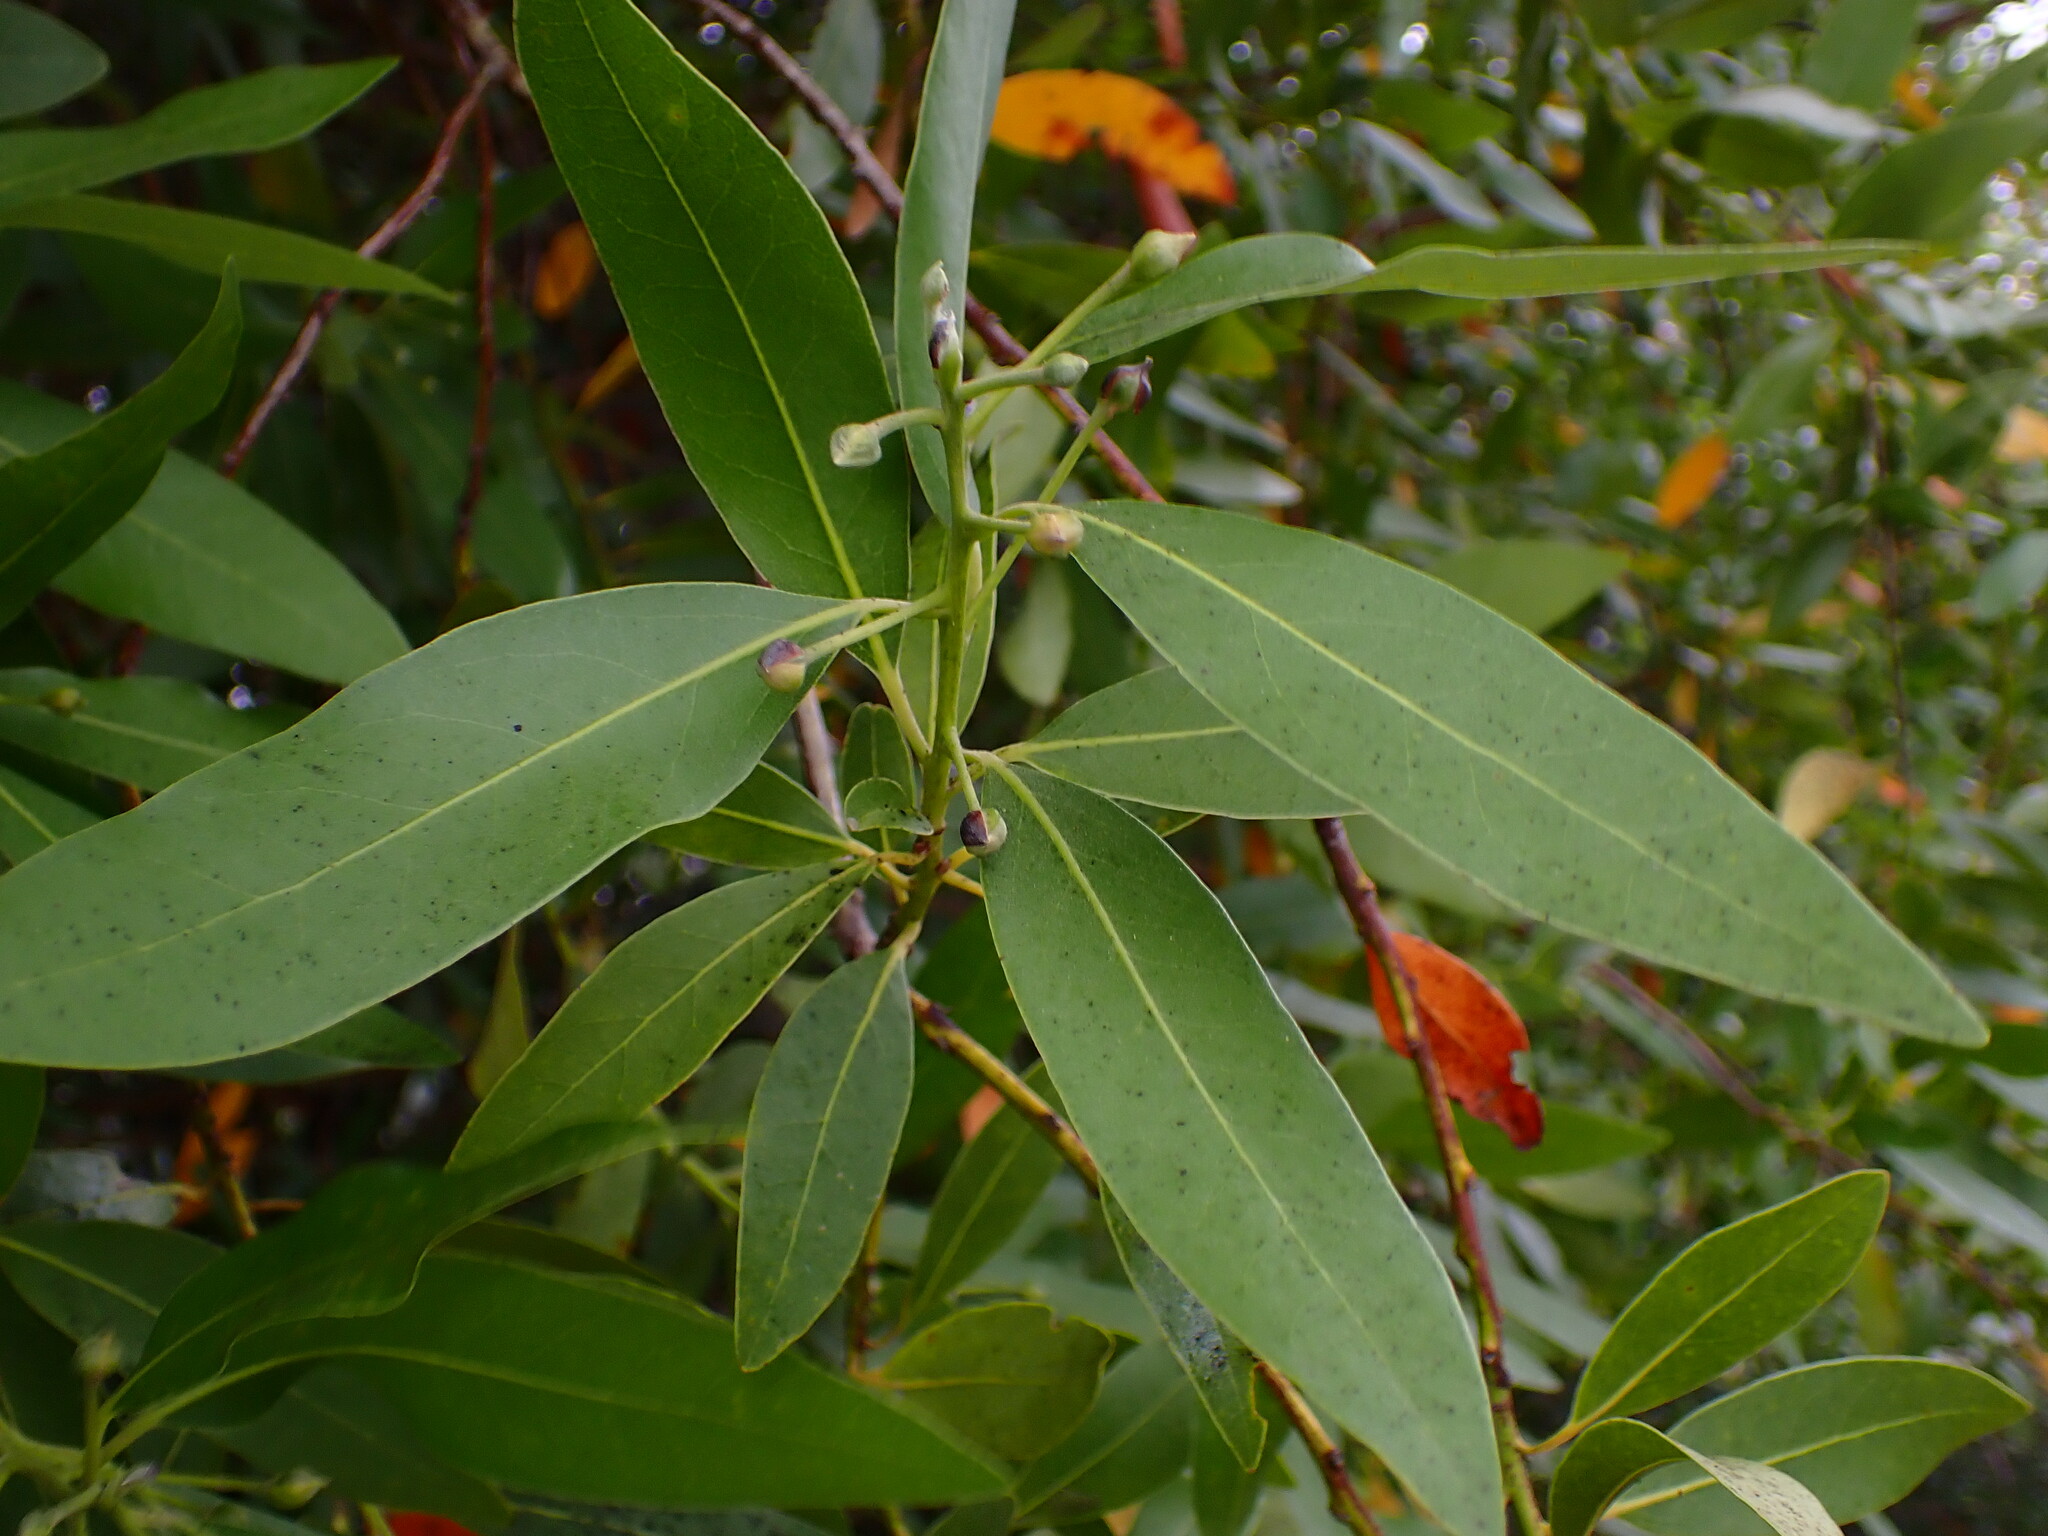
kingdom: Plantae
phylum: Tracheophyta
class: Magnoliopsida
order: Laurales
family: Lauraceae
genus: Umbellularia
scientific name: Umbellularia californica
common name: California bay
